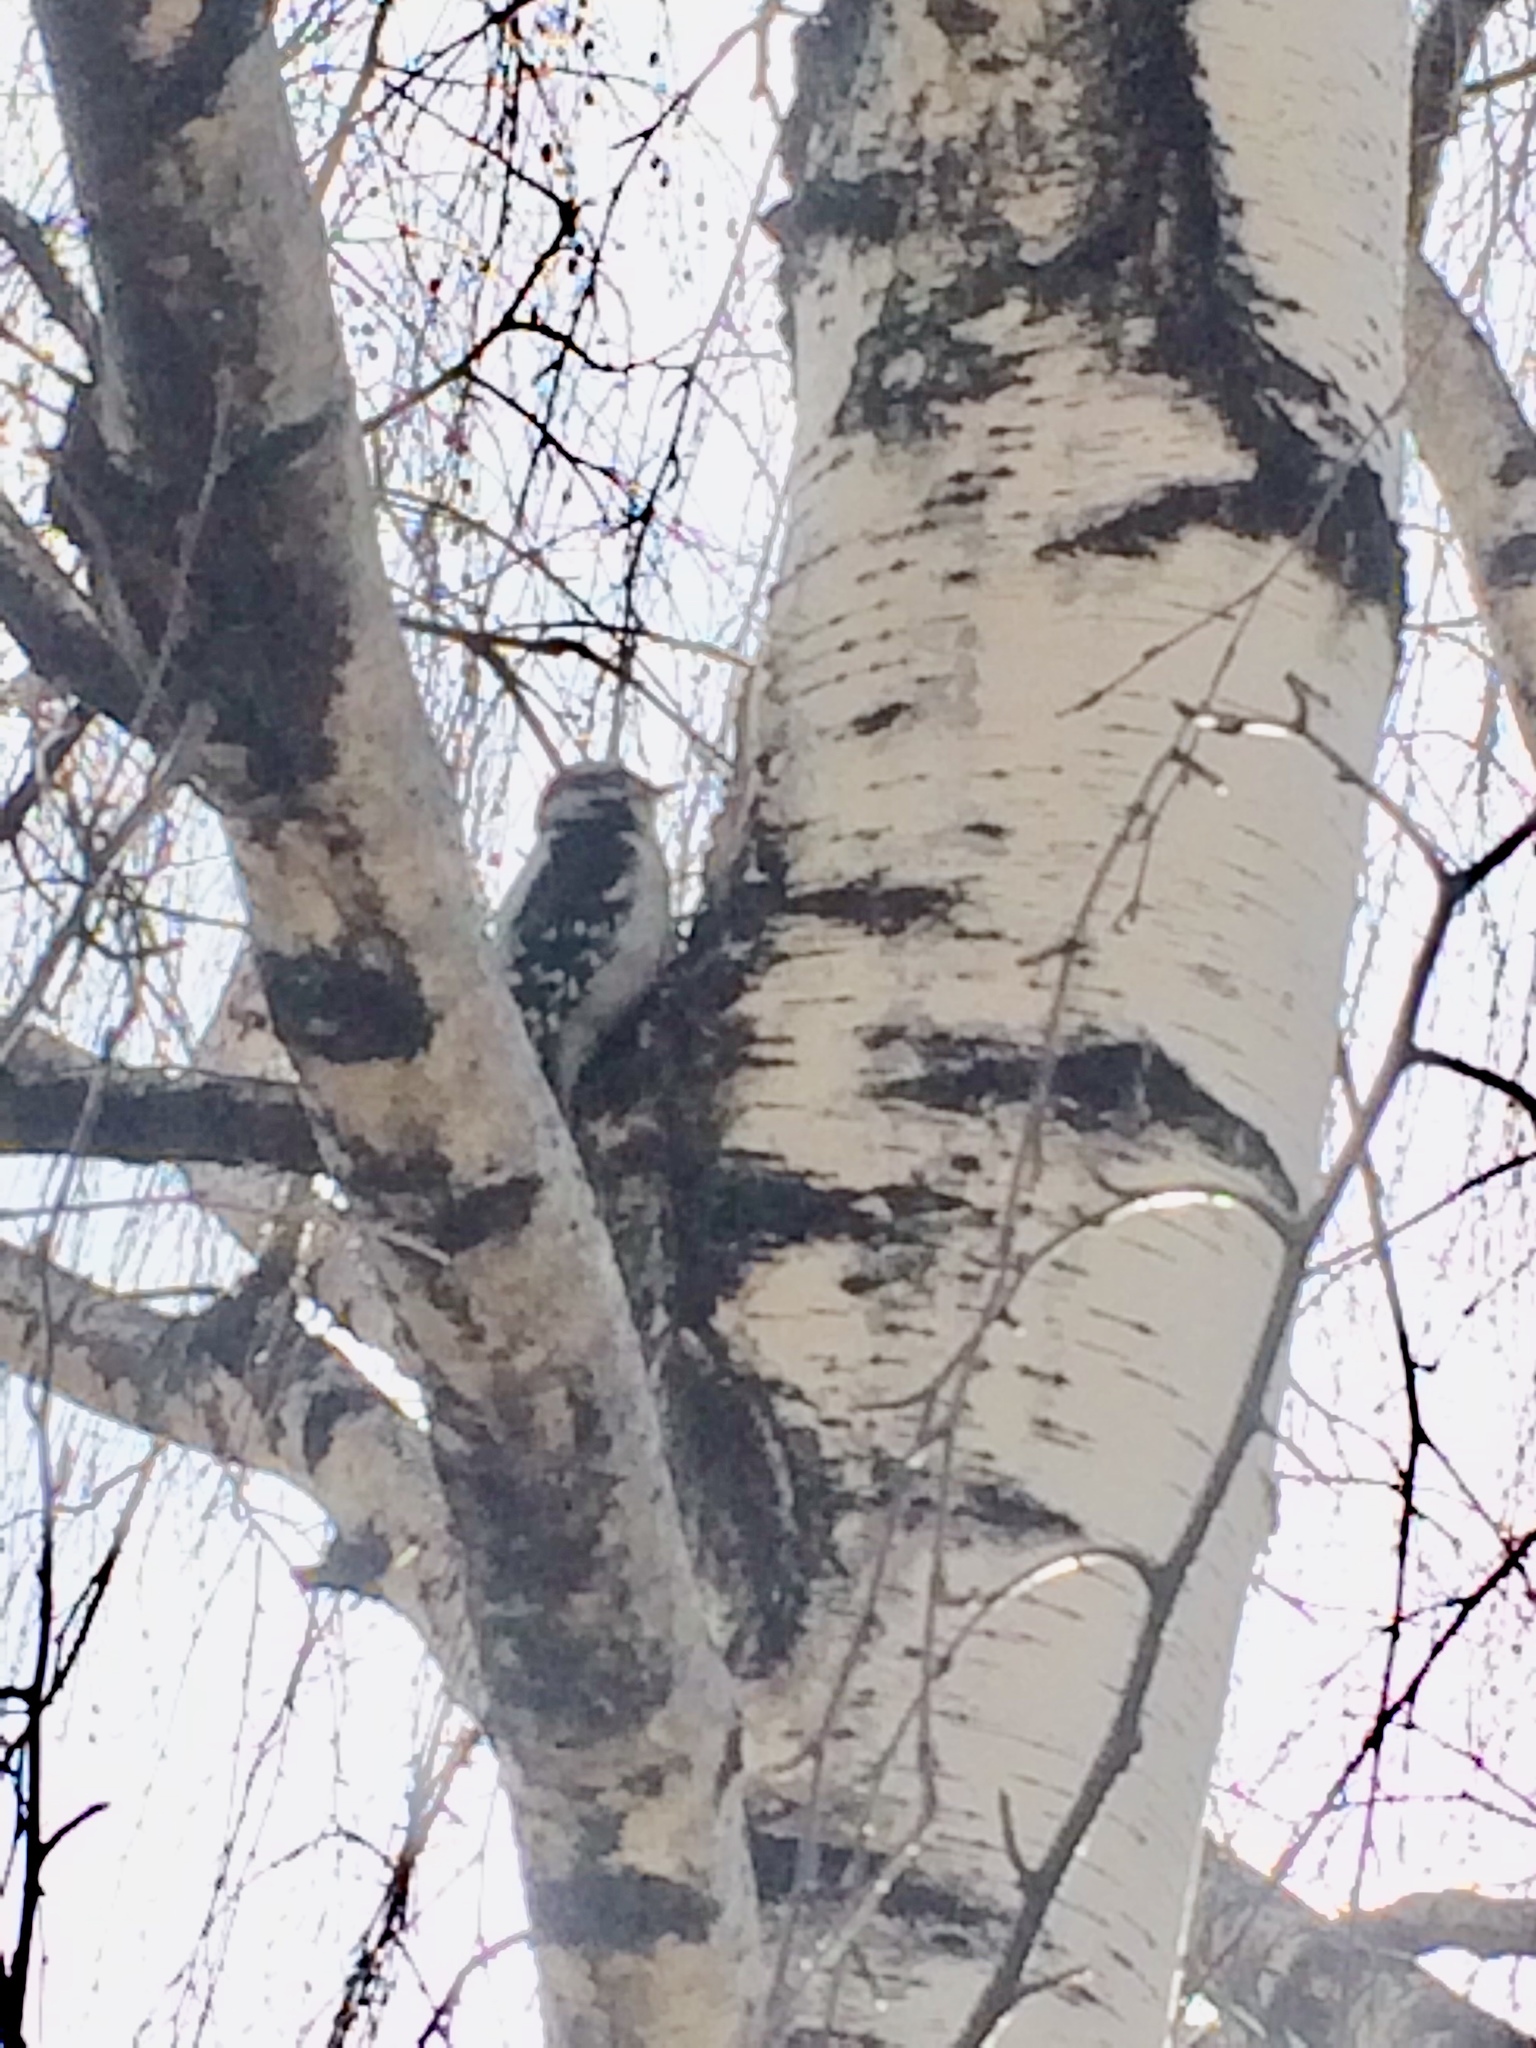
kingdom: Animalia
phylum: Chordata
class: Aves
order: Piciformes
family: Picidae
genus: Dryobates
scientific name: Dryobates pubescens
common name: Downy woodpecker
